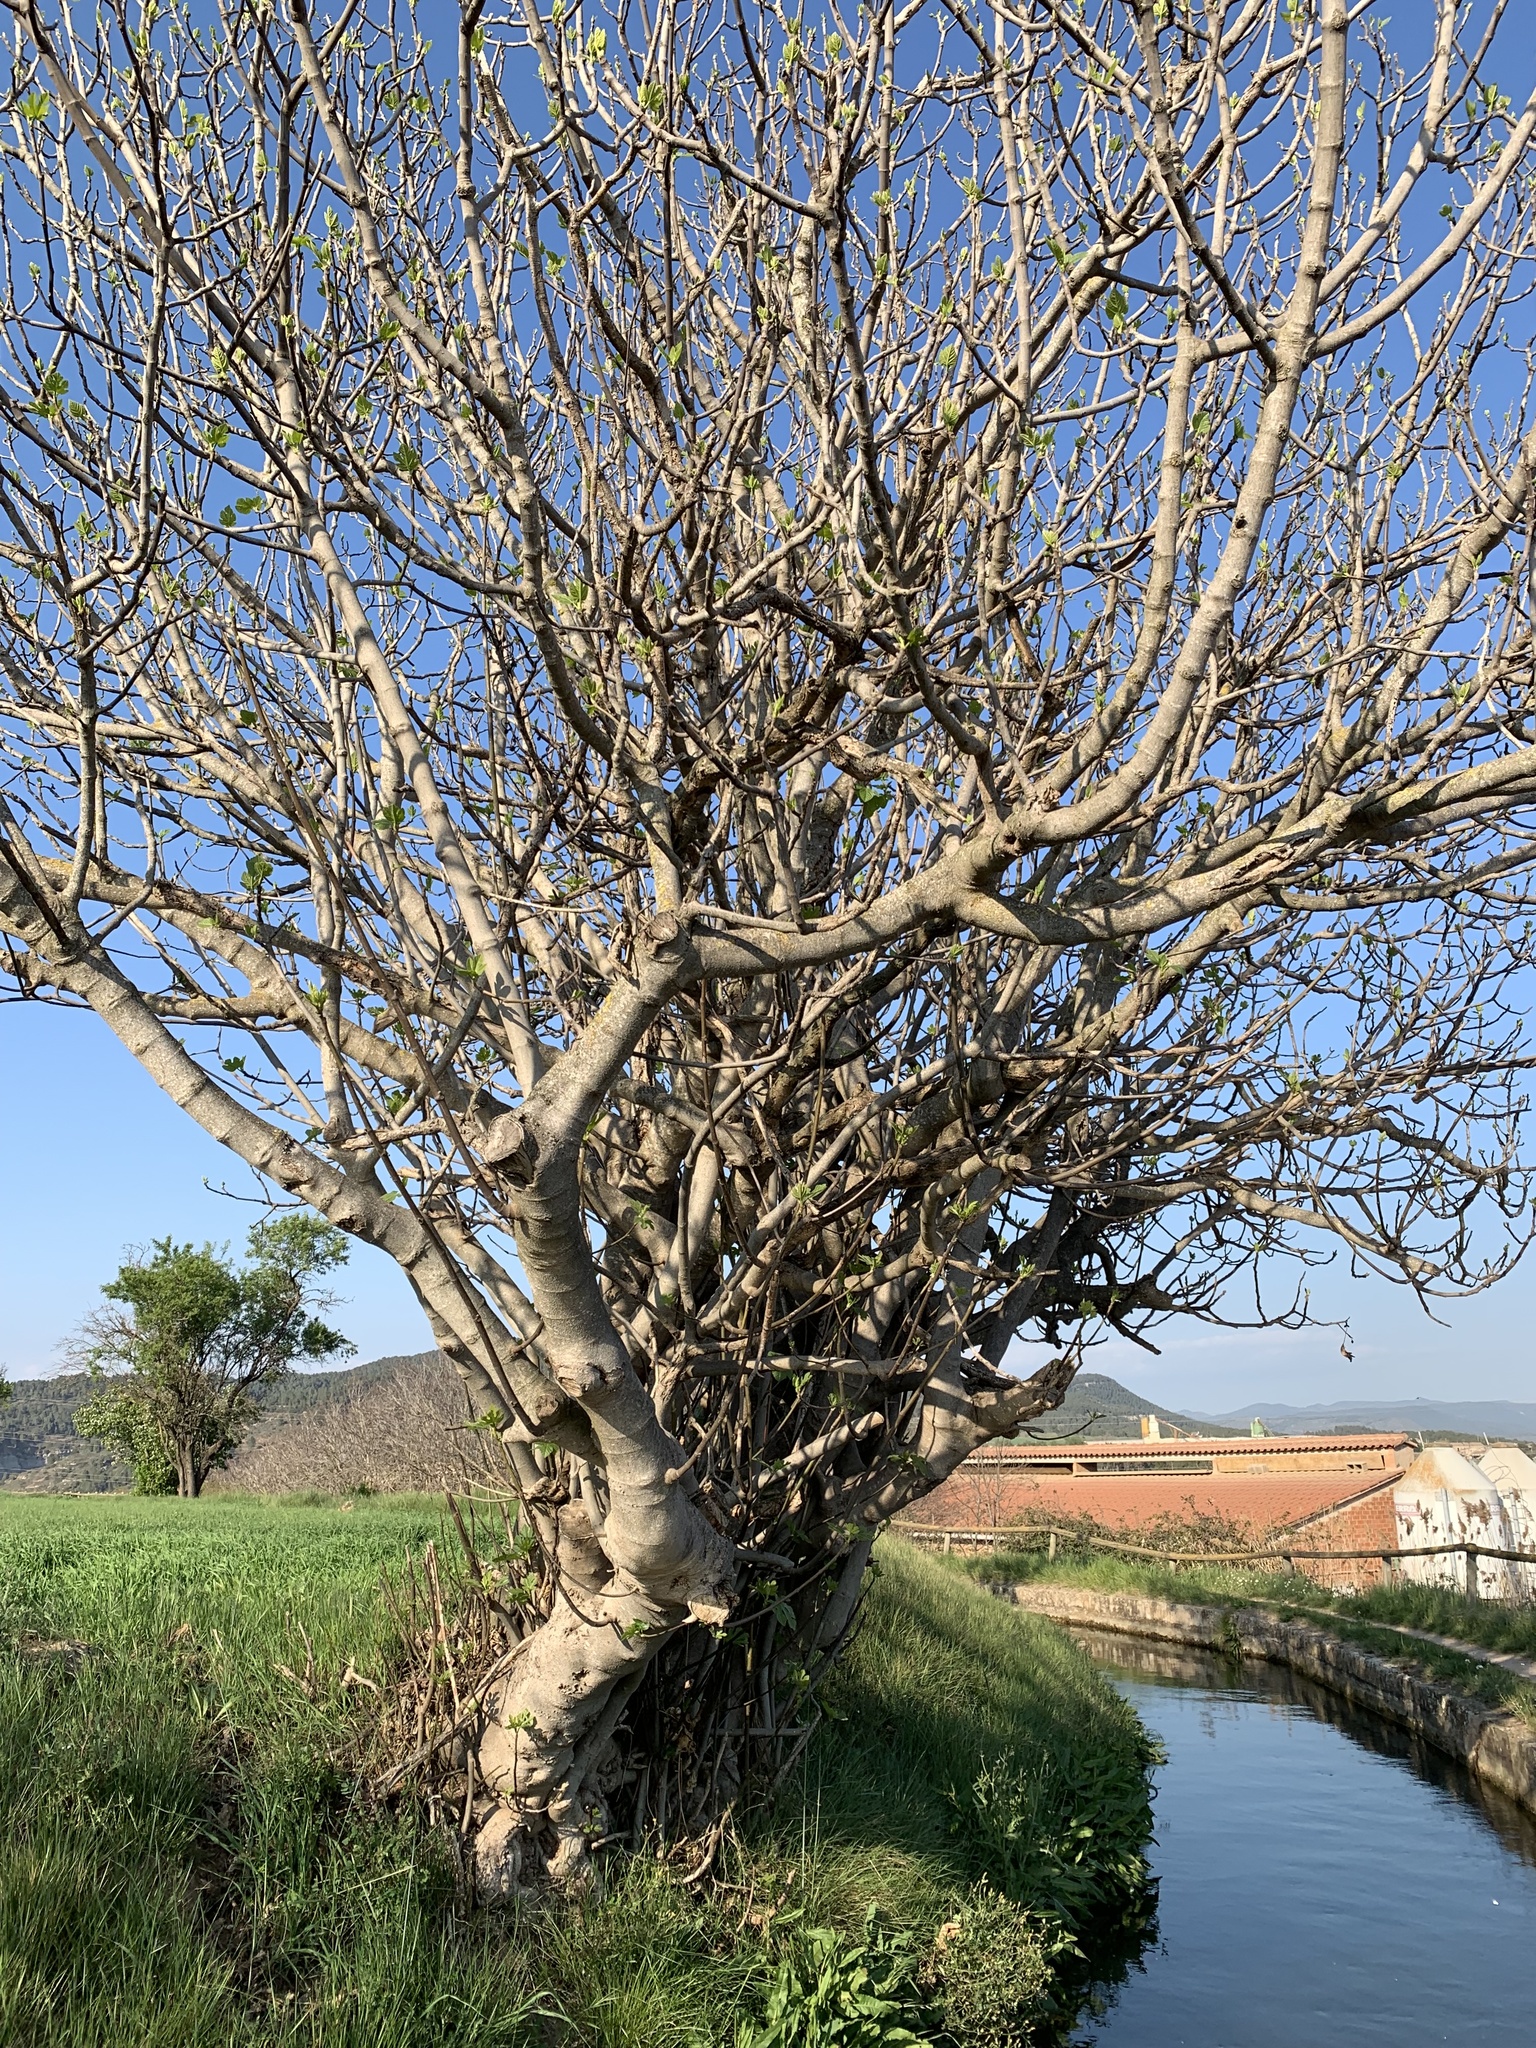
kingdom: Plantae
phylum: Tracheophyta
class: Magnoliopsida
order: Rosales
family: Moraceae
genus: Ficus
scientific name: Ficus carica
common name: Fig
